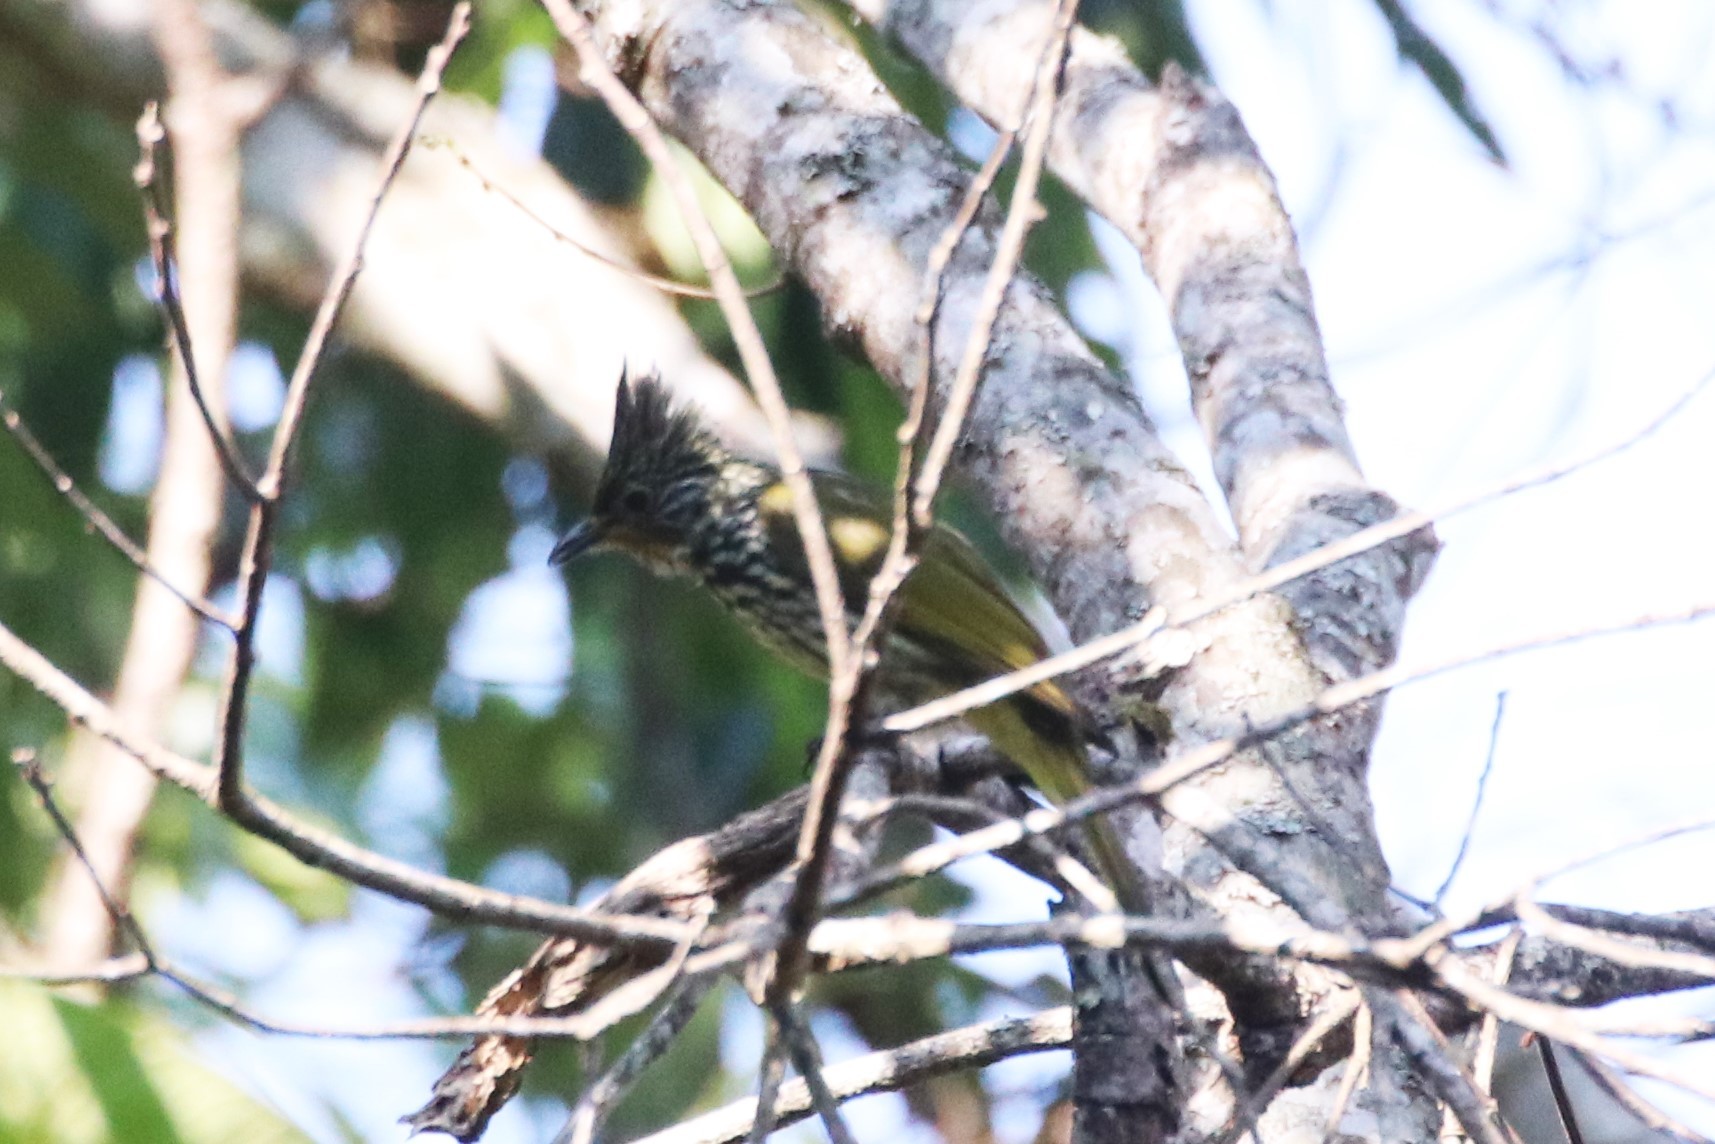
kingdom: Animalia
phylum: Chordata
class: Aves
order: Passeriformes
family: Pycnonotidae
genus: Pycnonotus
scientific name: Pycnonotus striatus
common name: Striated bulbul
